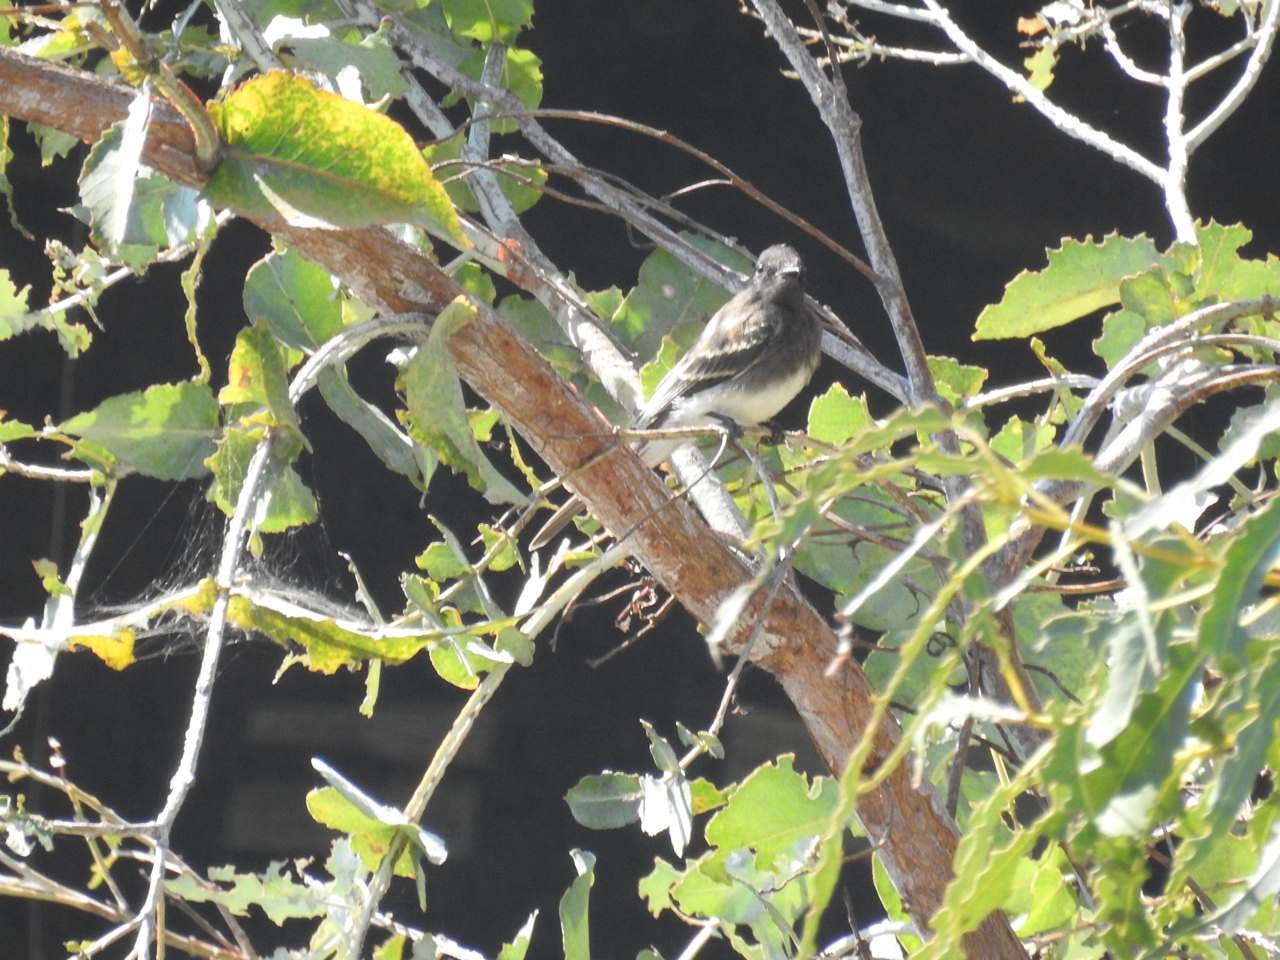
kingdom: Animalia
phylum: Chordata
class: Aves
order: Passeriformes
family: Tyrannidae
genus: Sayornis
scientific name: Sayornis nigricans
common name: Black phoebe
